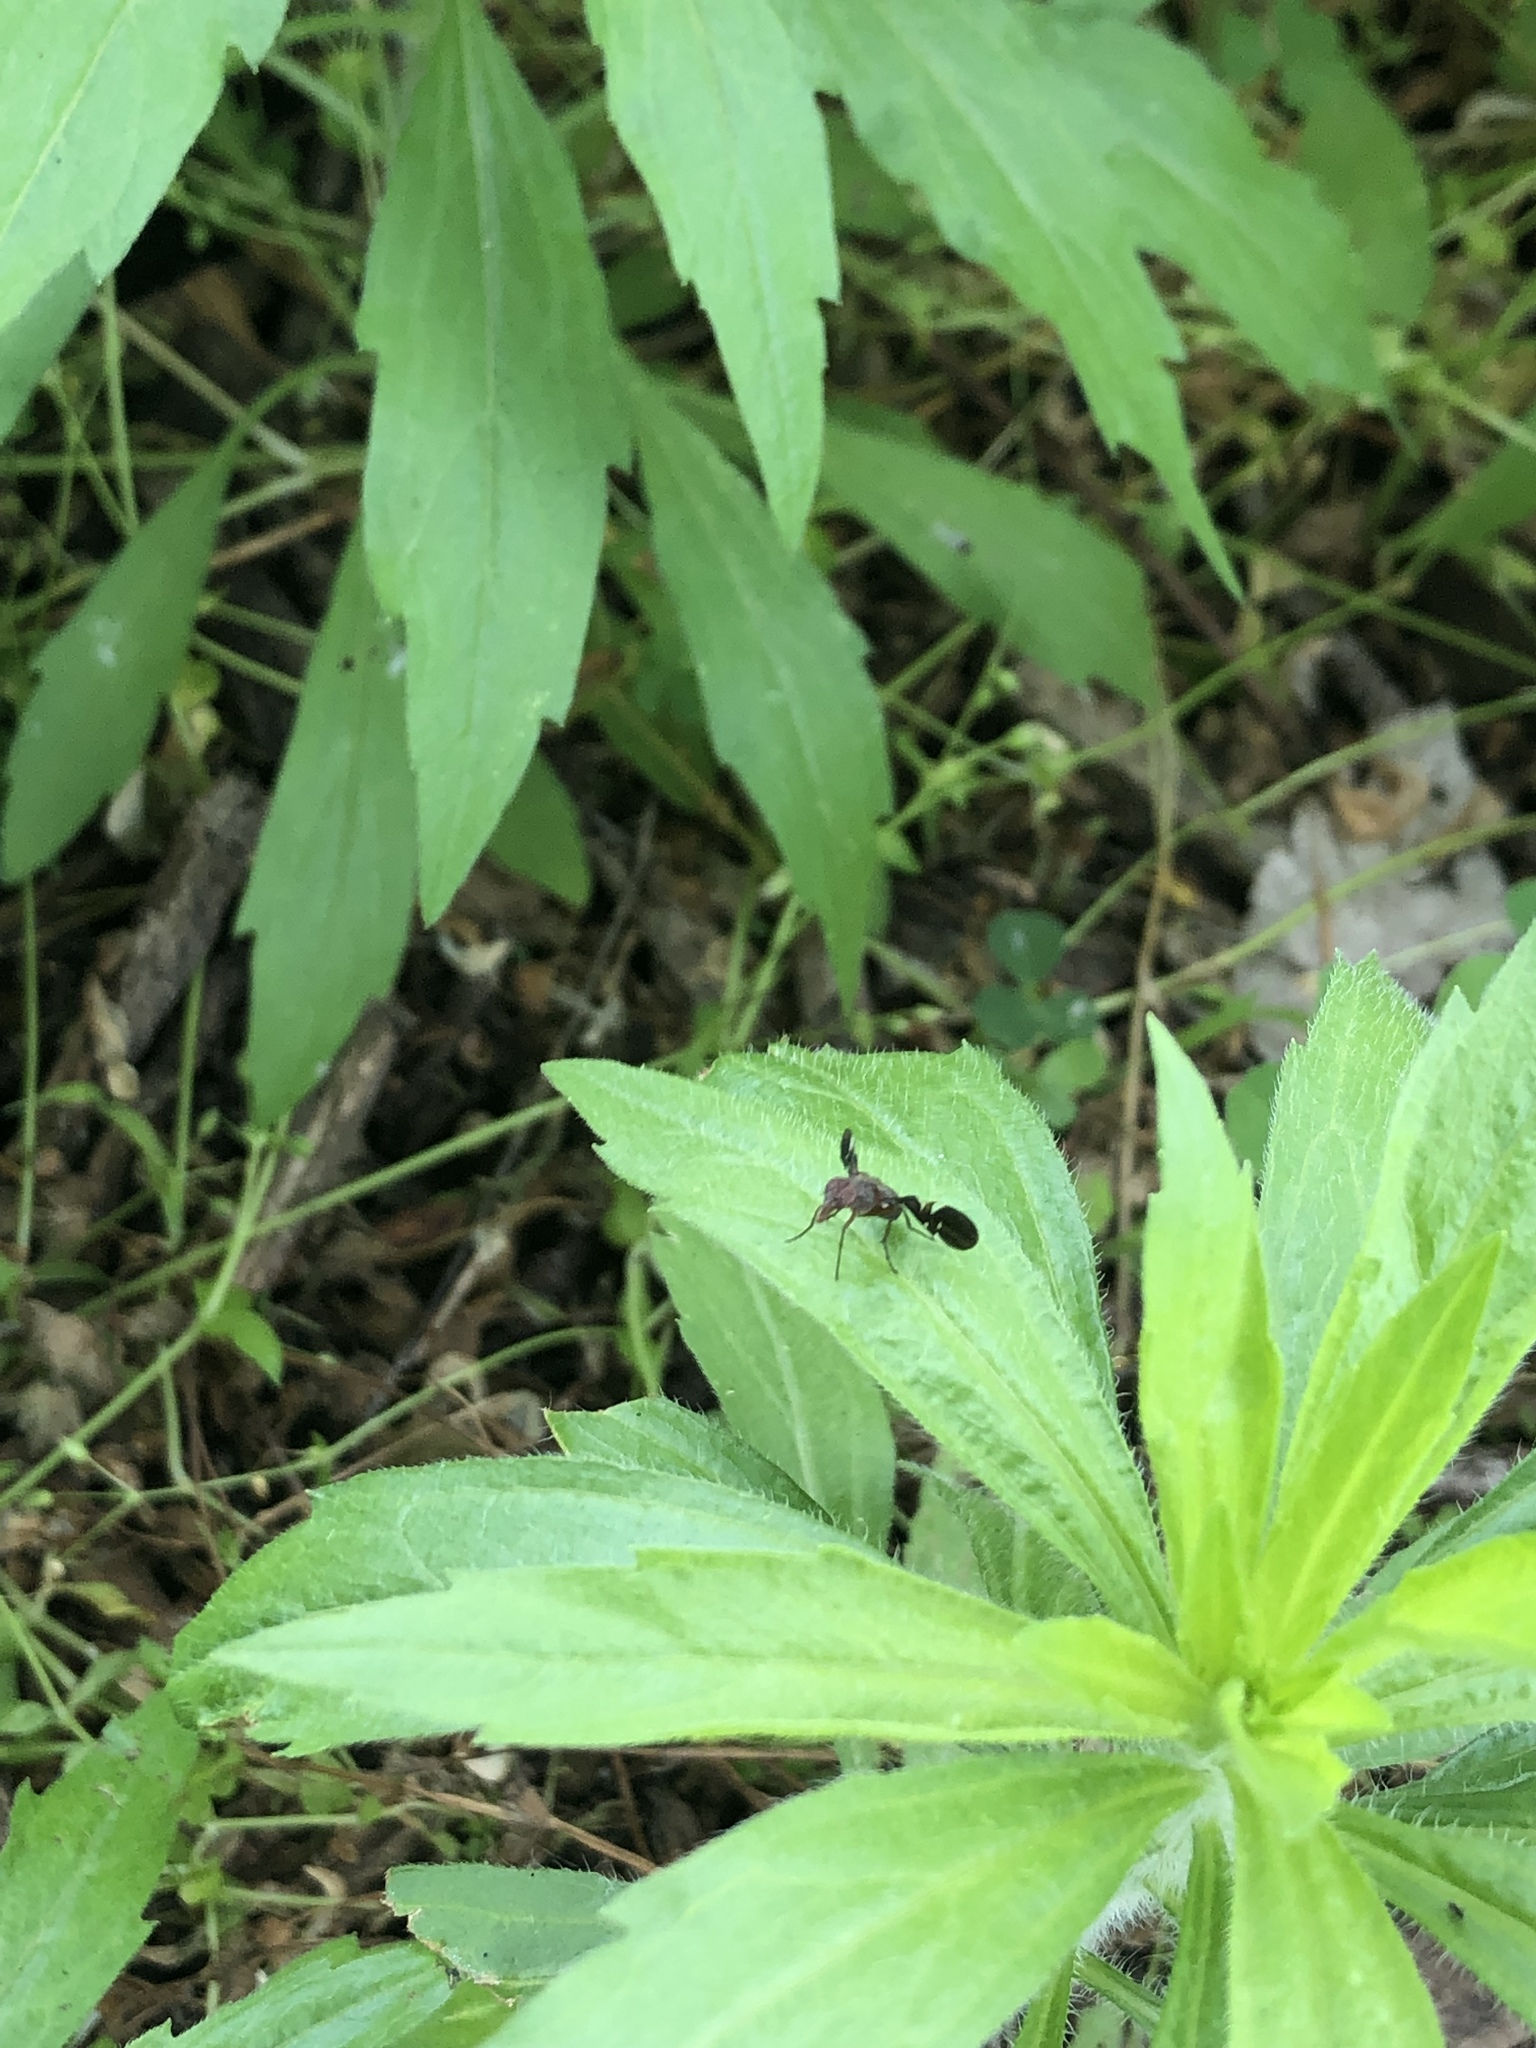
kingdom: Animalia
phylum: Arthropoda
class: Insecta
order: Diptera
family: Ulidiidae
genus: Delphinia
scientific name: Delphinia picta
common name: Common picture-winged fly
